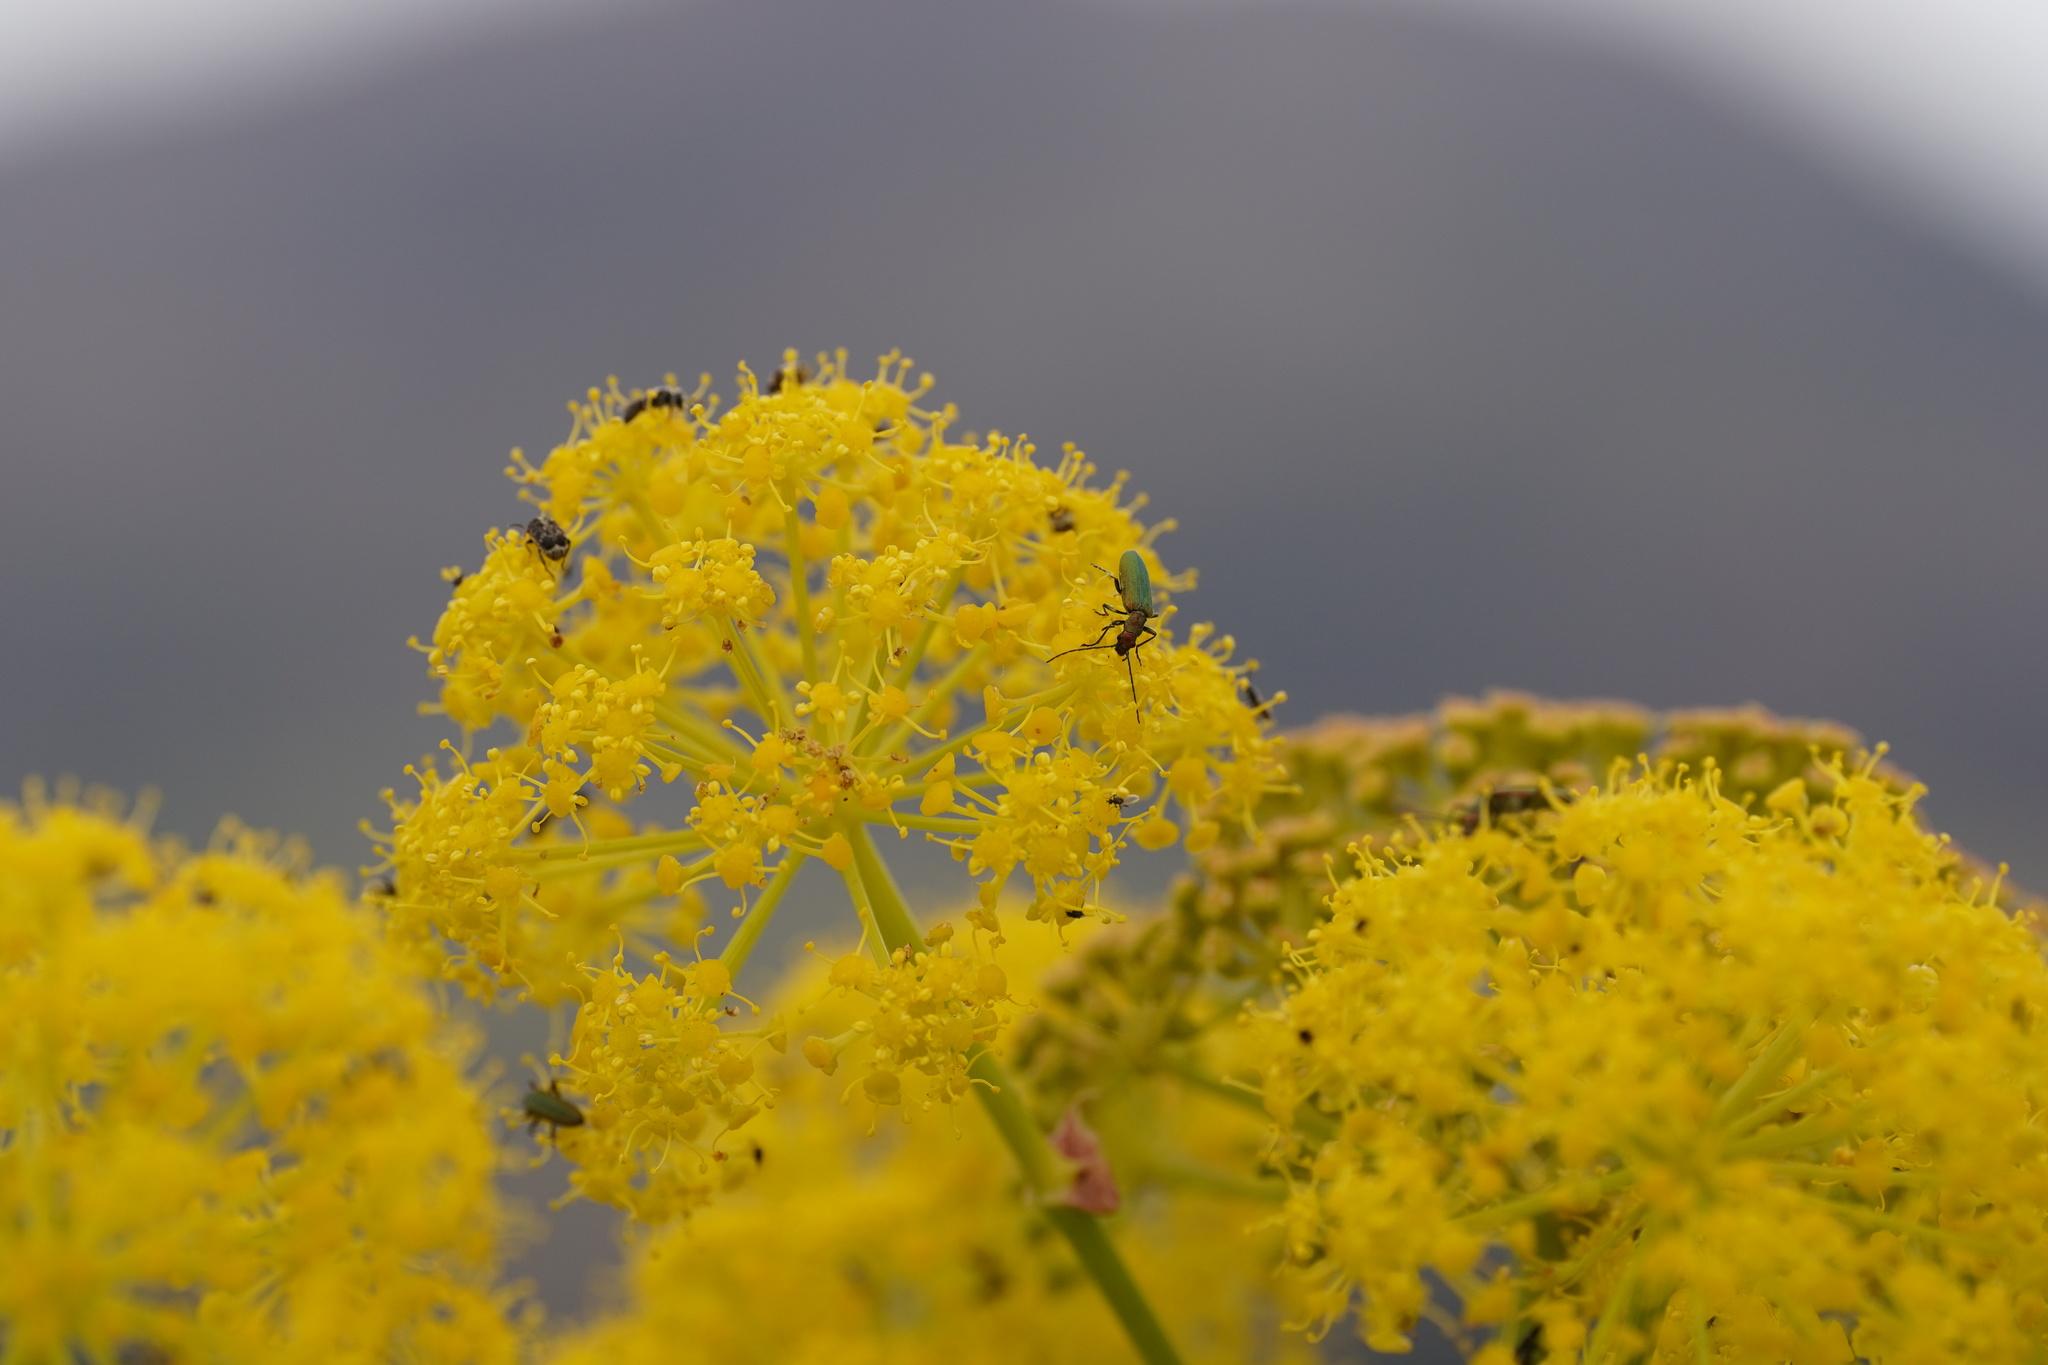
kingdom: Animalia
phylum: Arthropoda
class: Insecta
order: Coleoptera
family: Oedemeridae
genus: Chrysanthia
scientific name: Chrysanthia reitteri
